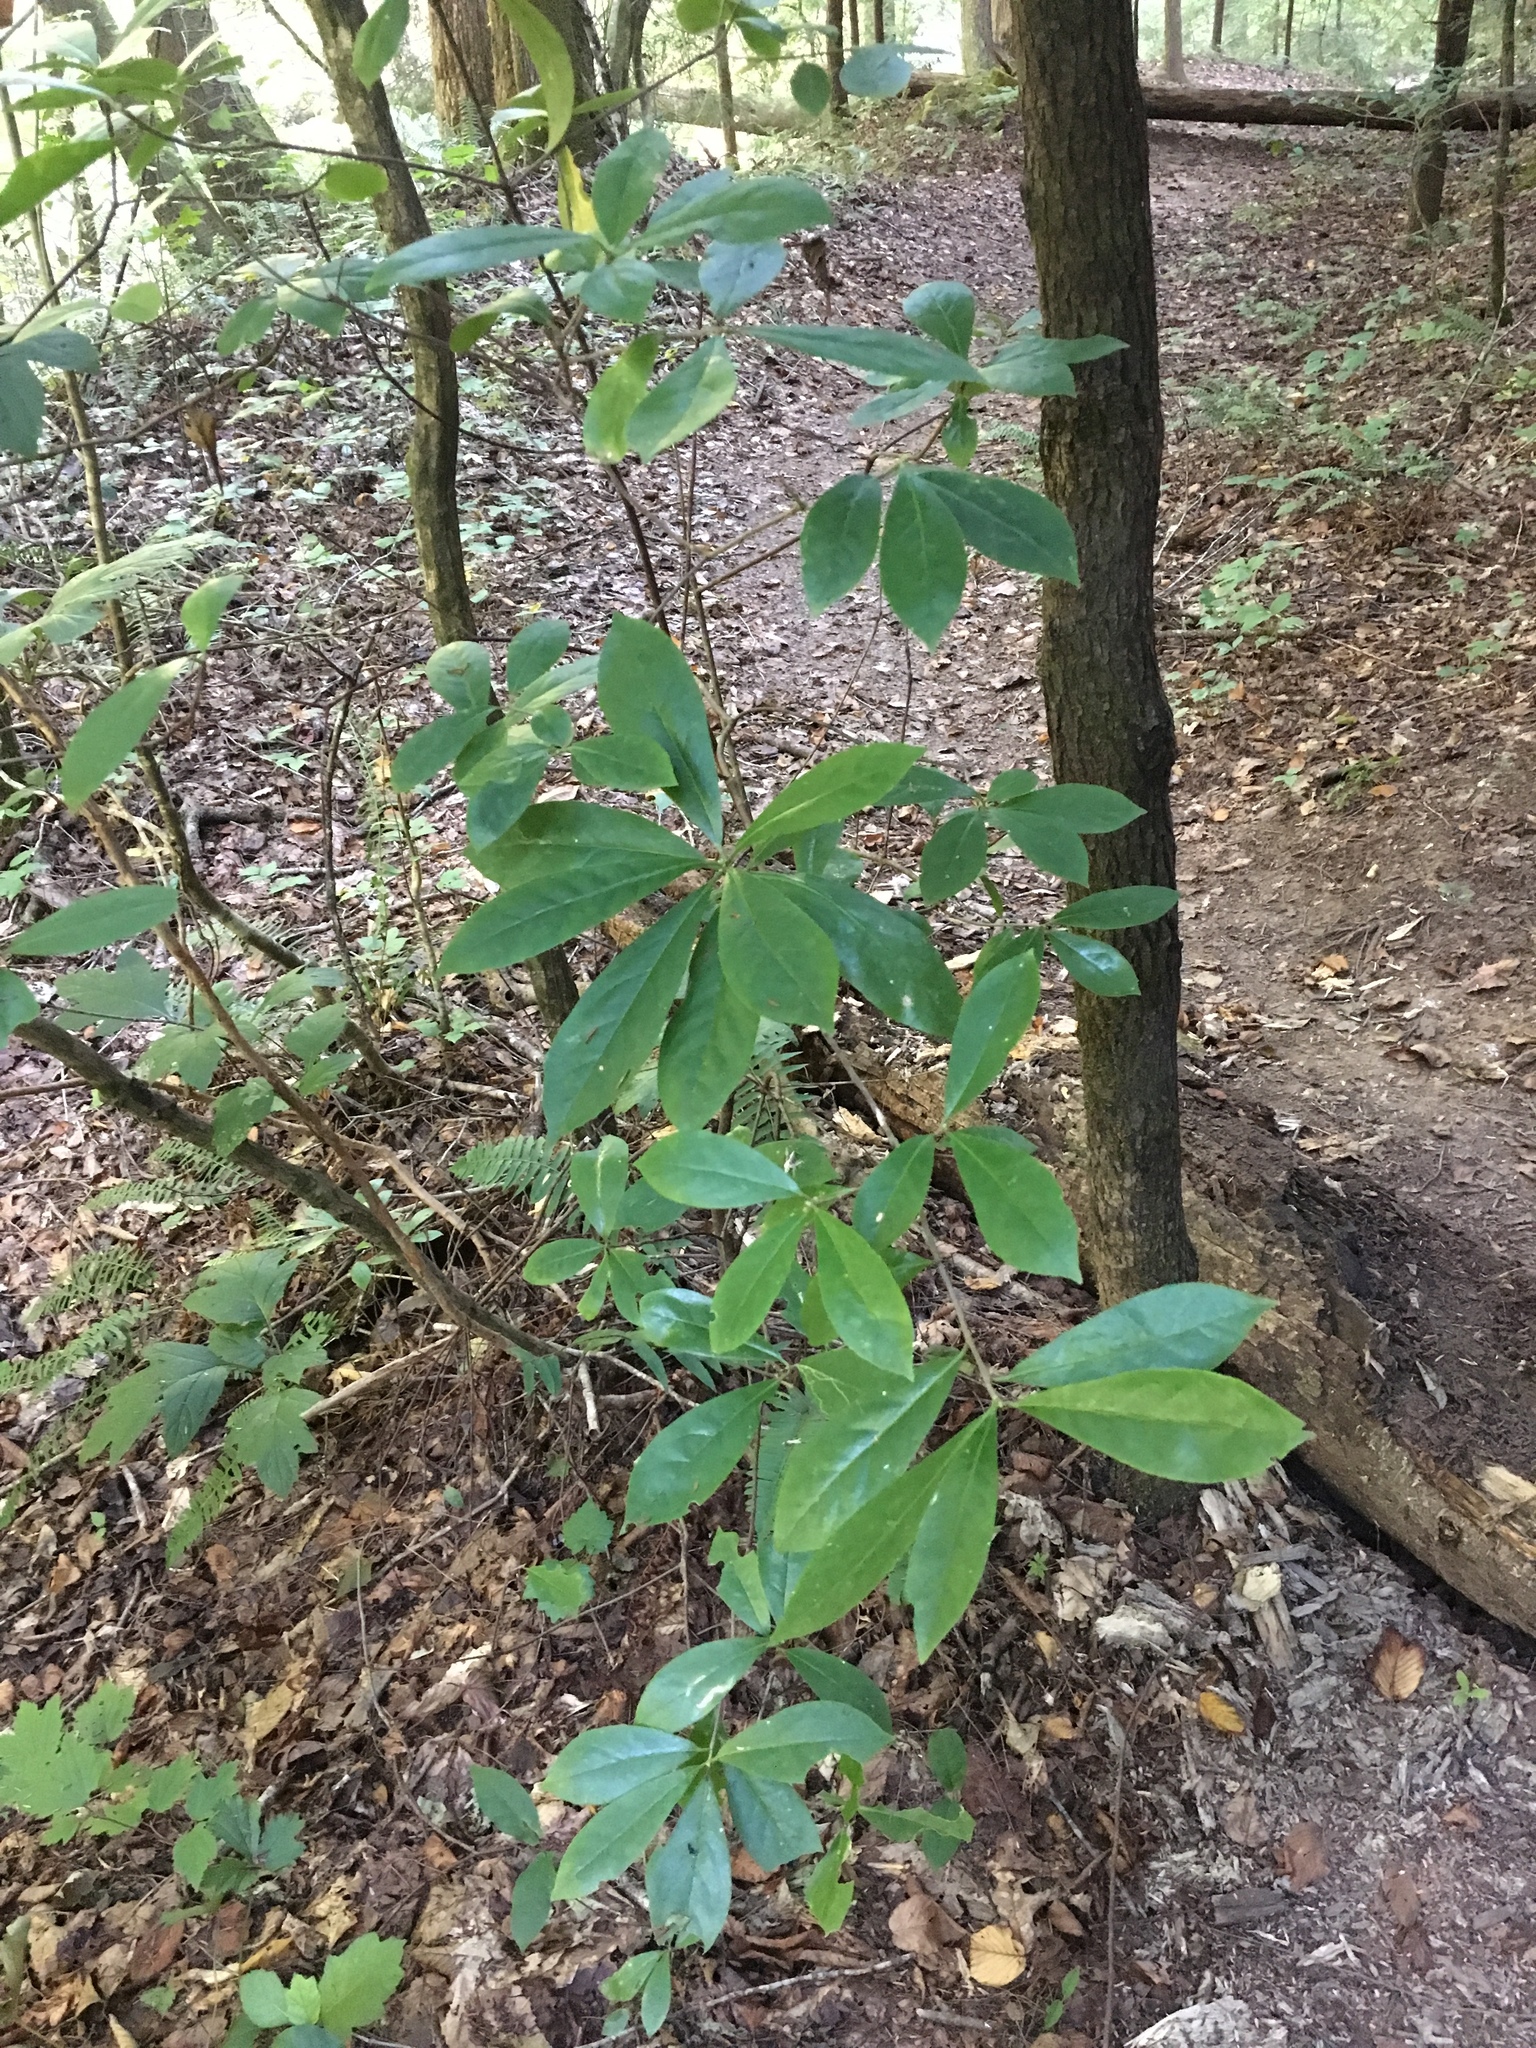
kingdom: Plantae
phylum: Tracheophyta
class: Magnoliopsida
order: Ericales
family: Symplocaceae
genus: Symplocos
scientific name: Symplocos tinctoria
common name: Horse-sugar
